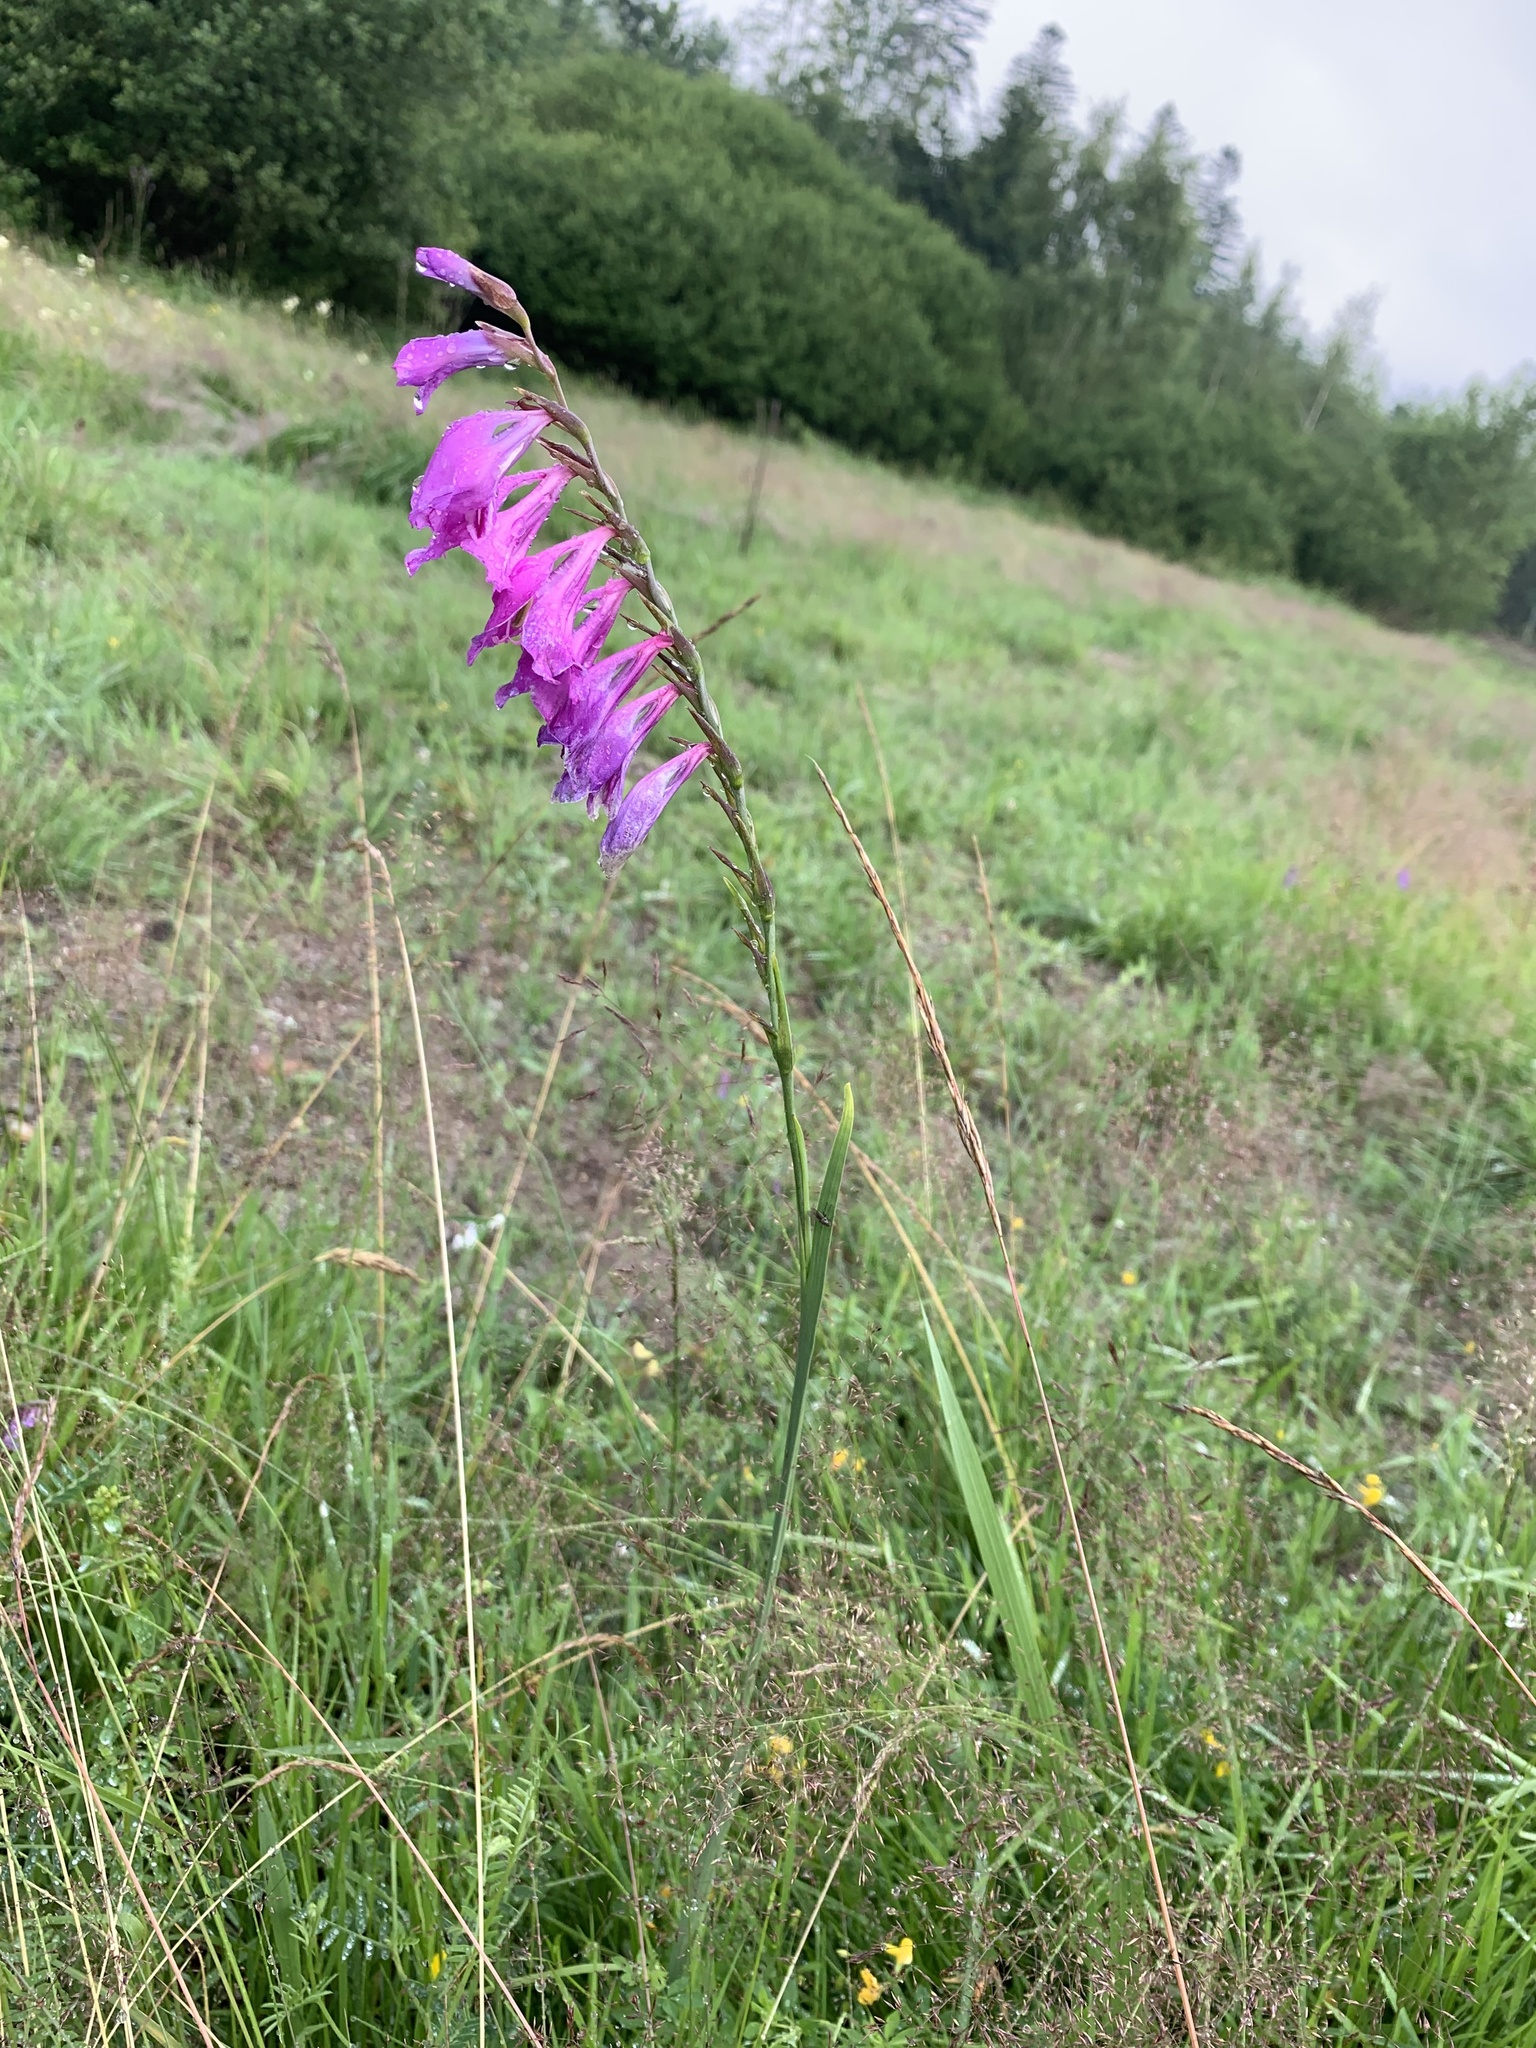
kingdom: Plantae
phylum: Tracheophyta
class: Liliopsida
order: Asparagales
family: Iridaceae
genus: Gladiolus
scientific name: Gladiolus imbricatus
